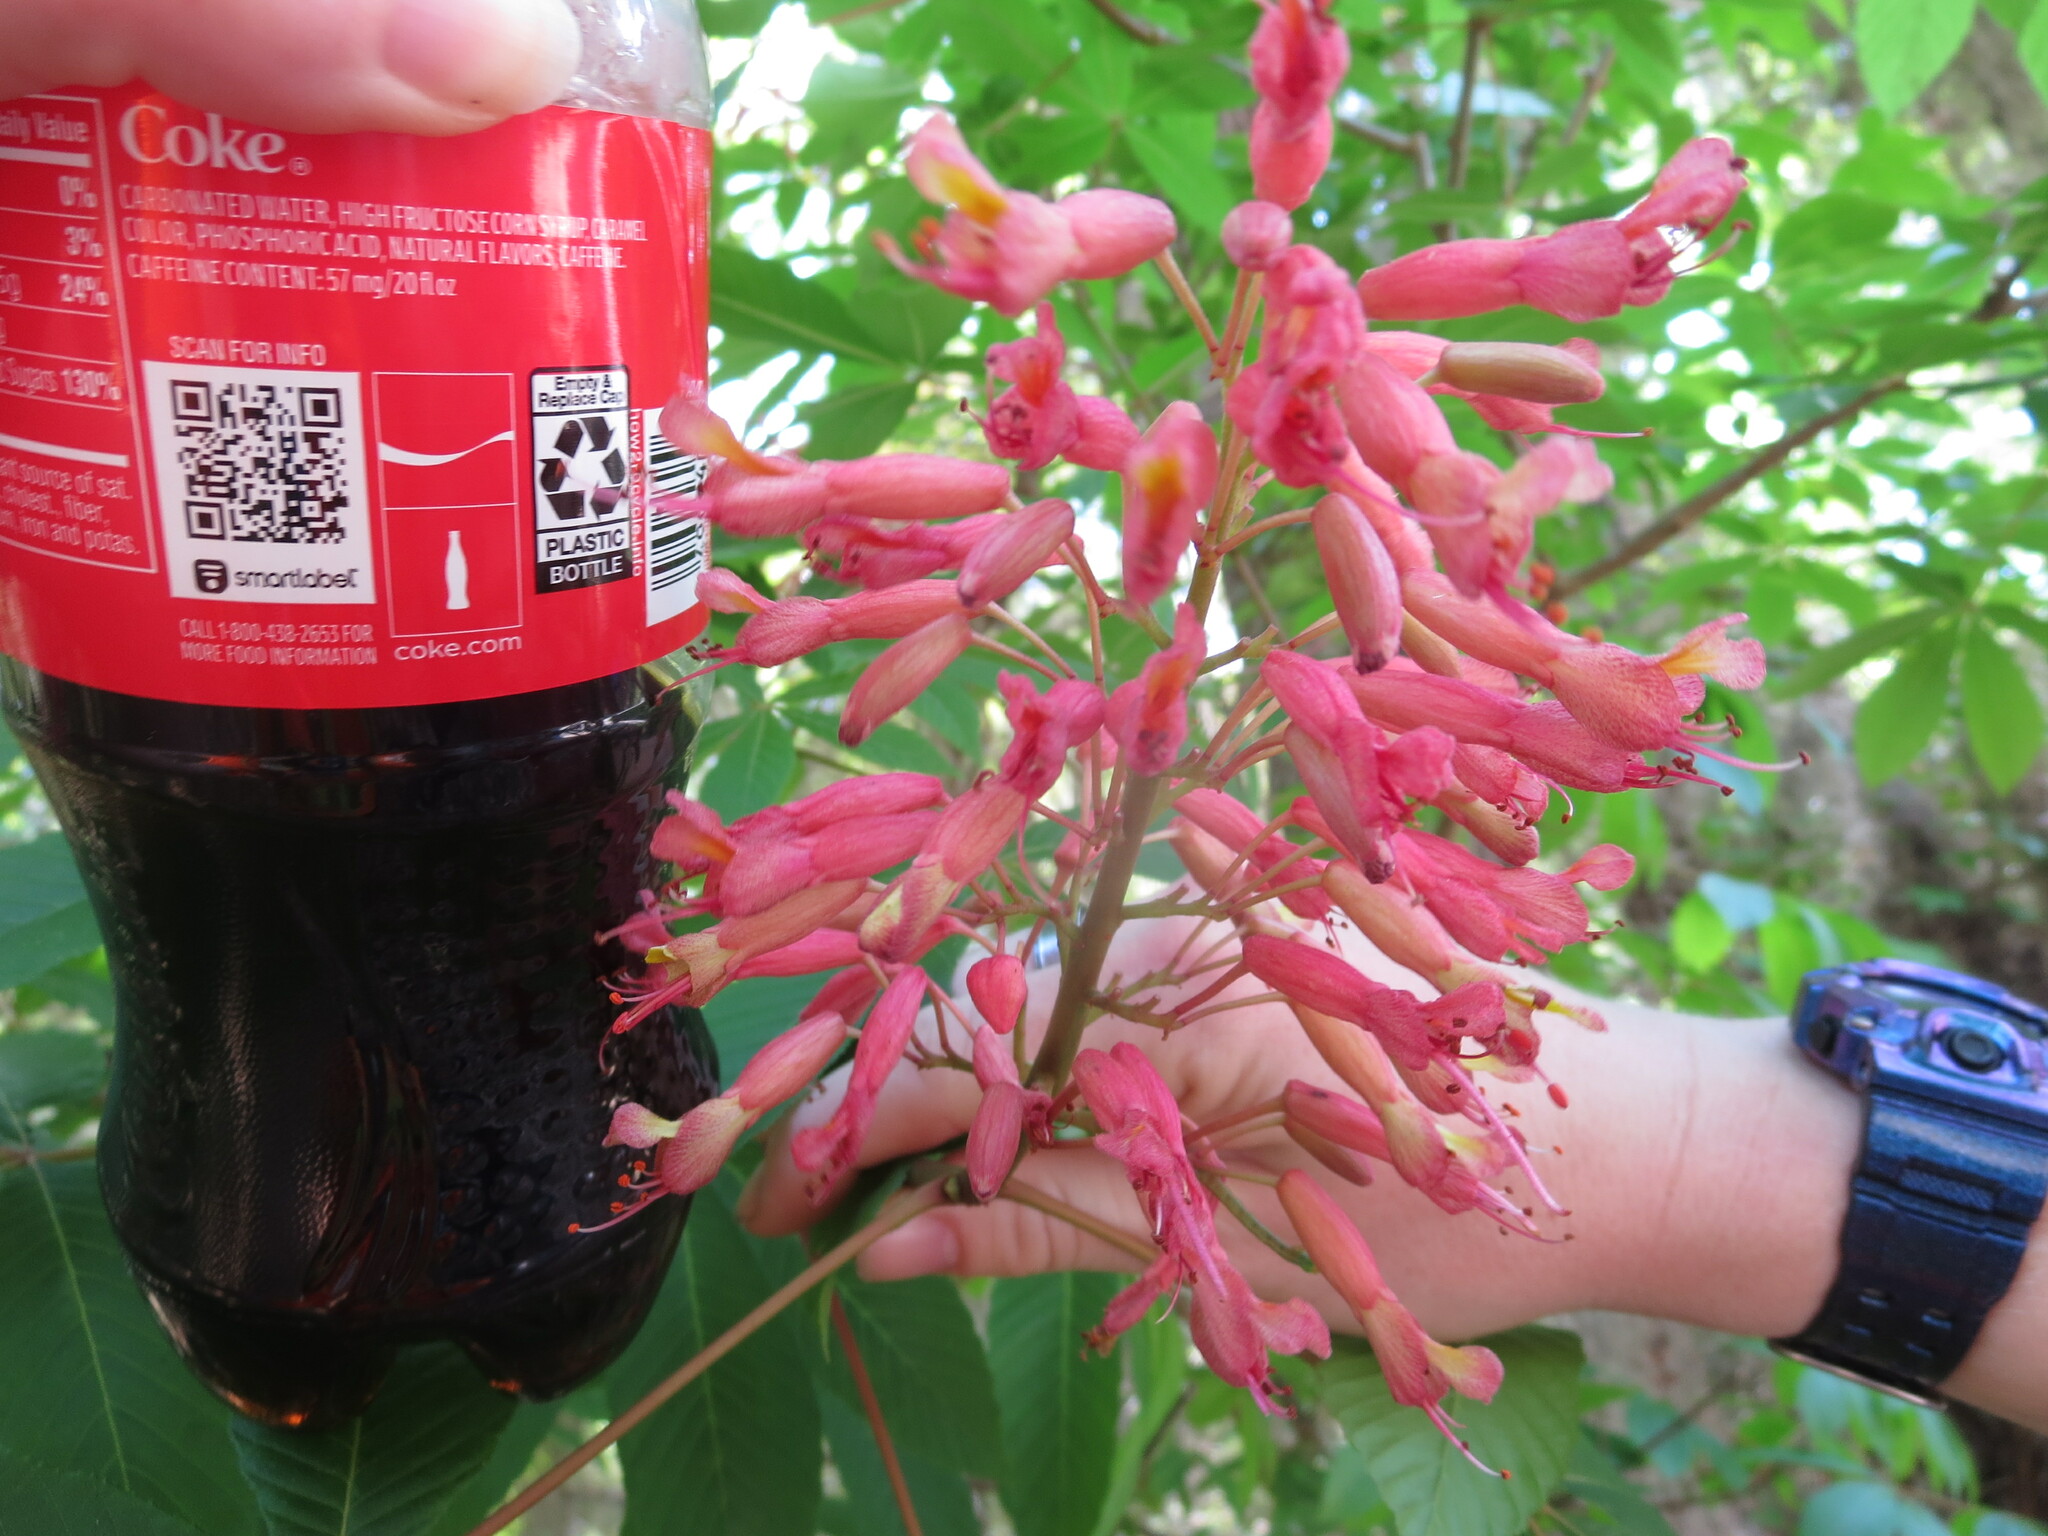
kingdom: Plantae
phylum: Tracheophyta
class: Magnoliopsida
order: Sapindales
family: Sapindaceae
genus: Aesculus
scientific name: Aesculus pavia
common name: Red buckeye
